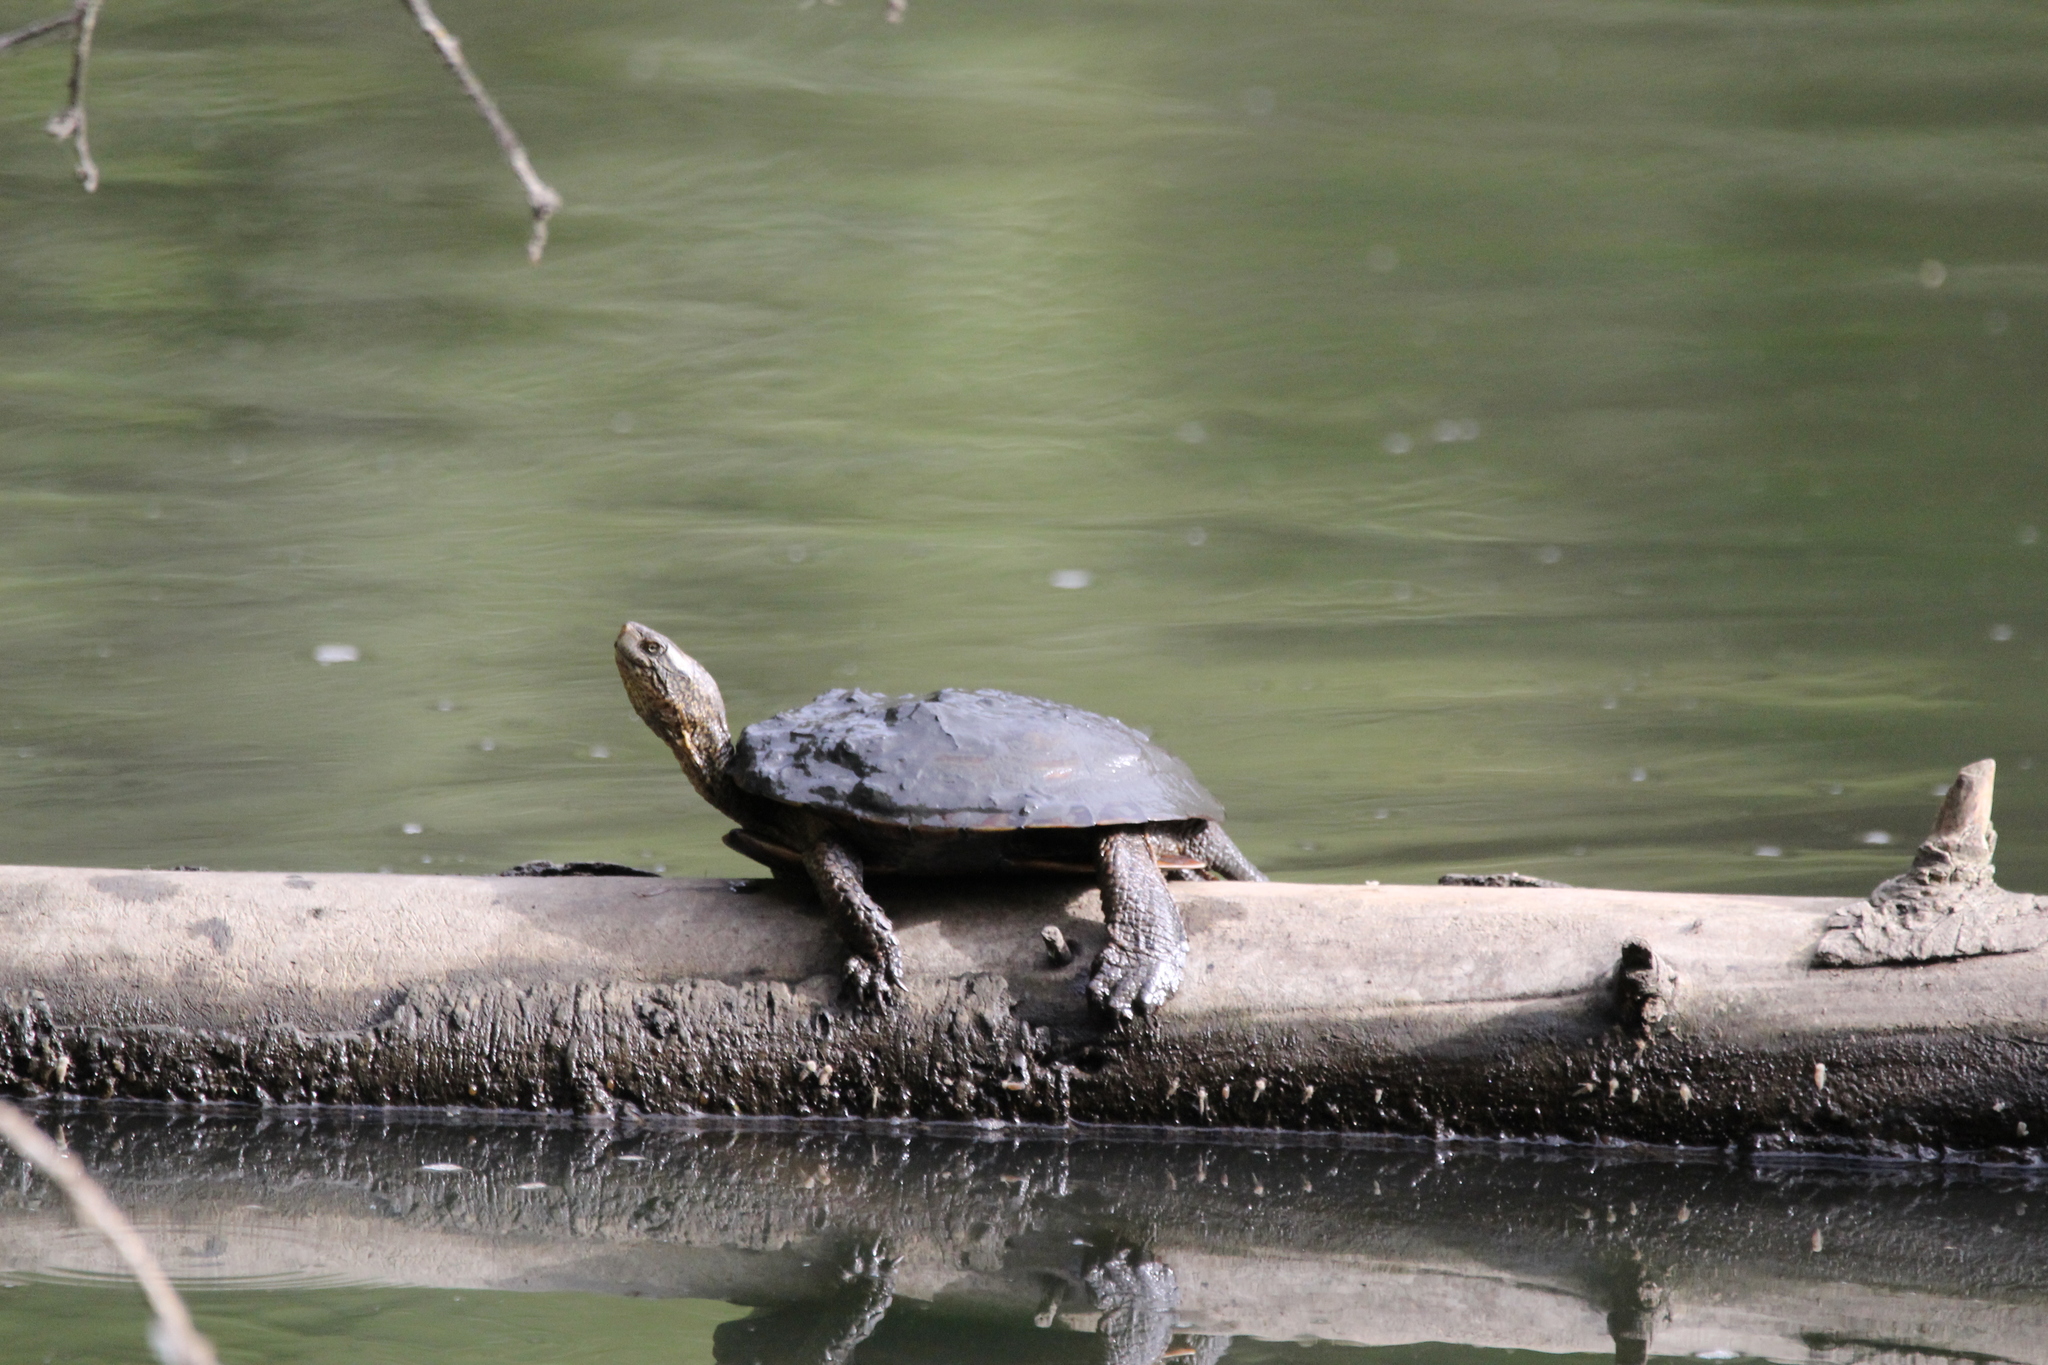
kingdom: Animalia
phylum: Chordata
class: Testudines
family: Emydidae
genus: Actinemys
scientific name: Actinemys marmorata
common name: Western pond turtle
